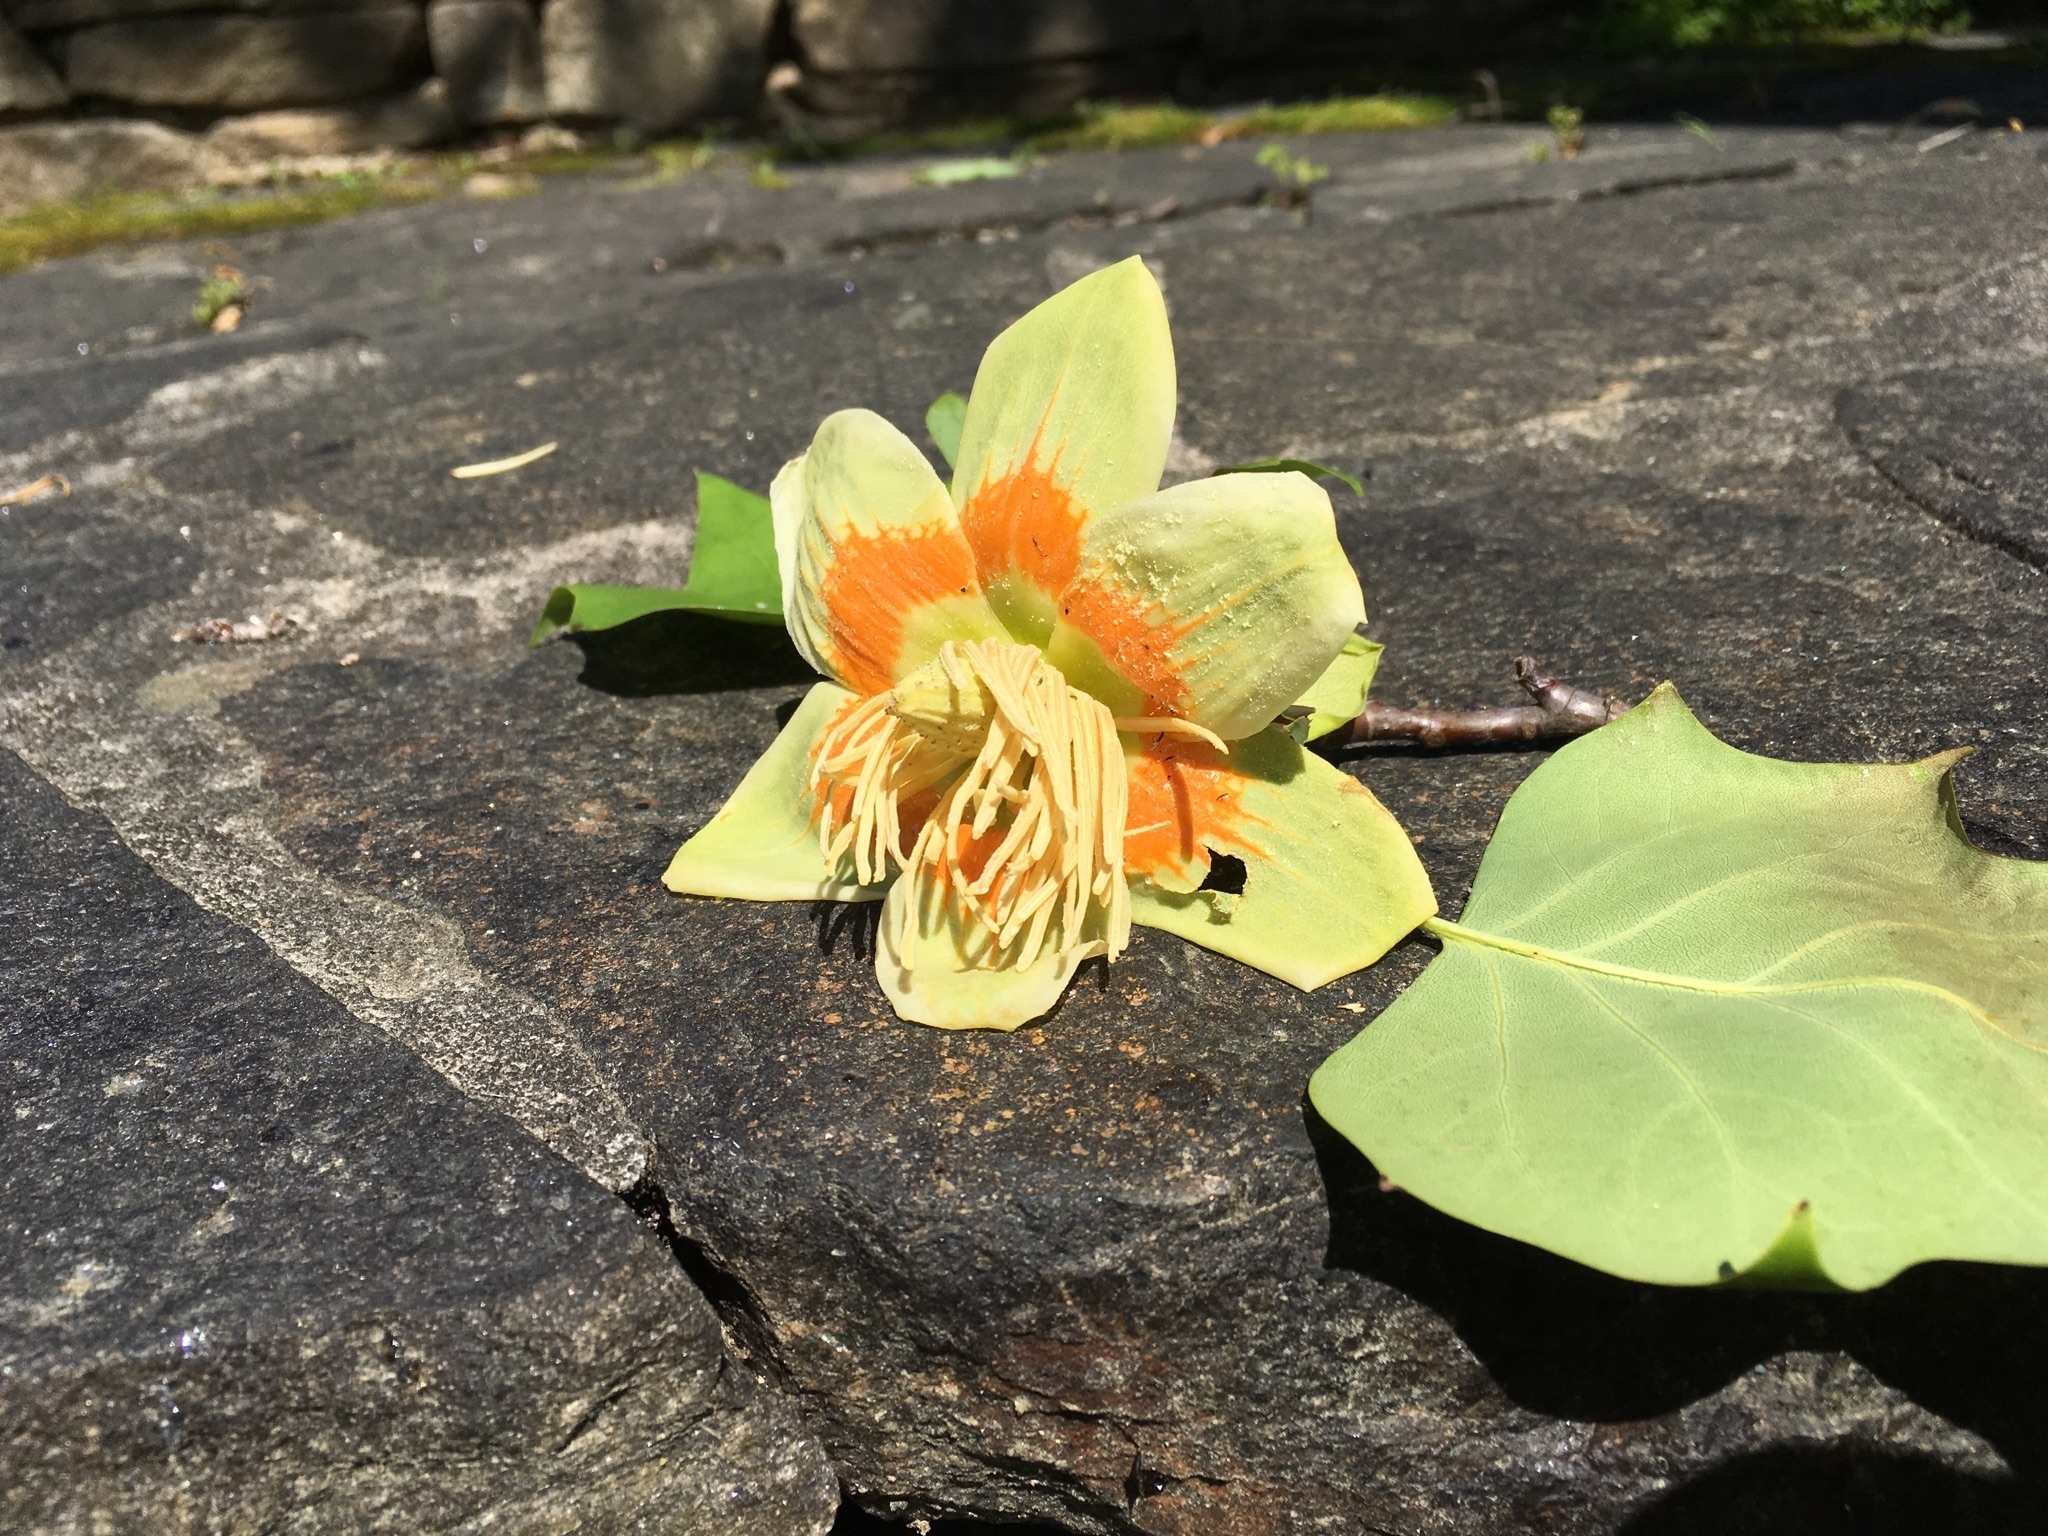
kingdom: Plantae
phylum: Tracheophyta
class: Magnoliopsida
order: Magnoliales
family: Magnoliaceae
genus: Liriodendron
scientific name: Liriodendron tulipifera
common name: Tulip tree
